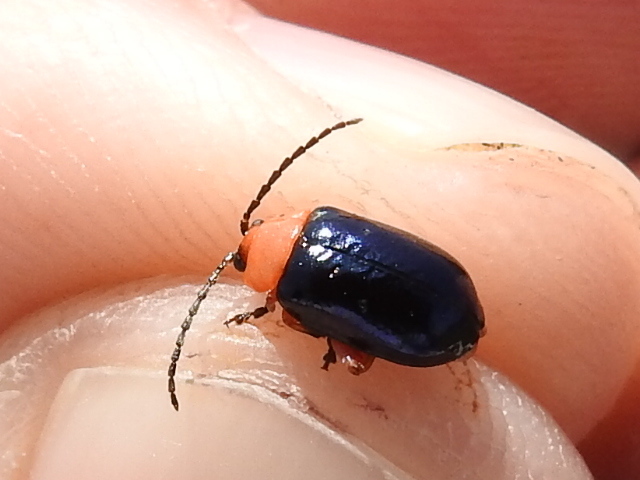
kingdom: Animalia
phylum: Arthropoda
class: Insecta
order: Coleoptera
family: Chrysomelidae
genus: Asphaera
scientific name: Asphaera lustrans
